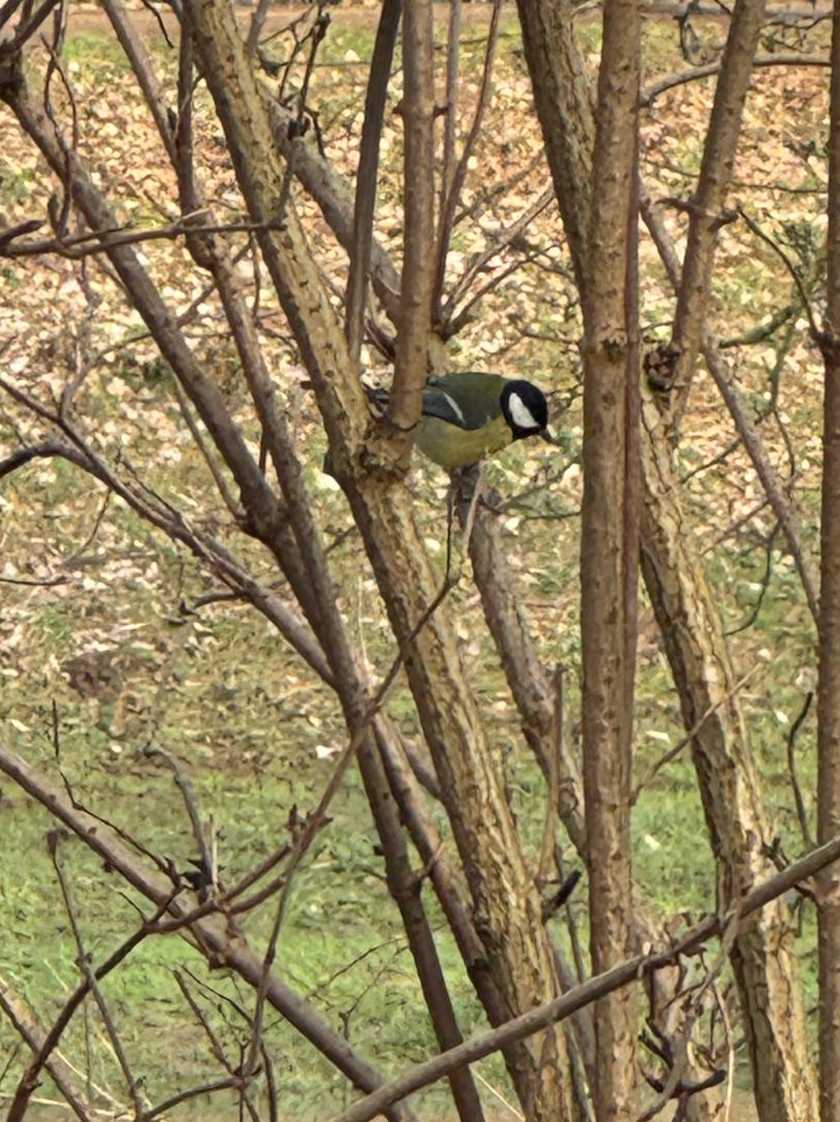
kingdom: Animalia
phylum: Chordata
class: Aves
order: Passeriformes
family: Paridae
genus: Parus
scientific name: Parus major
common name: Great tit
